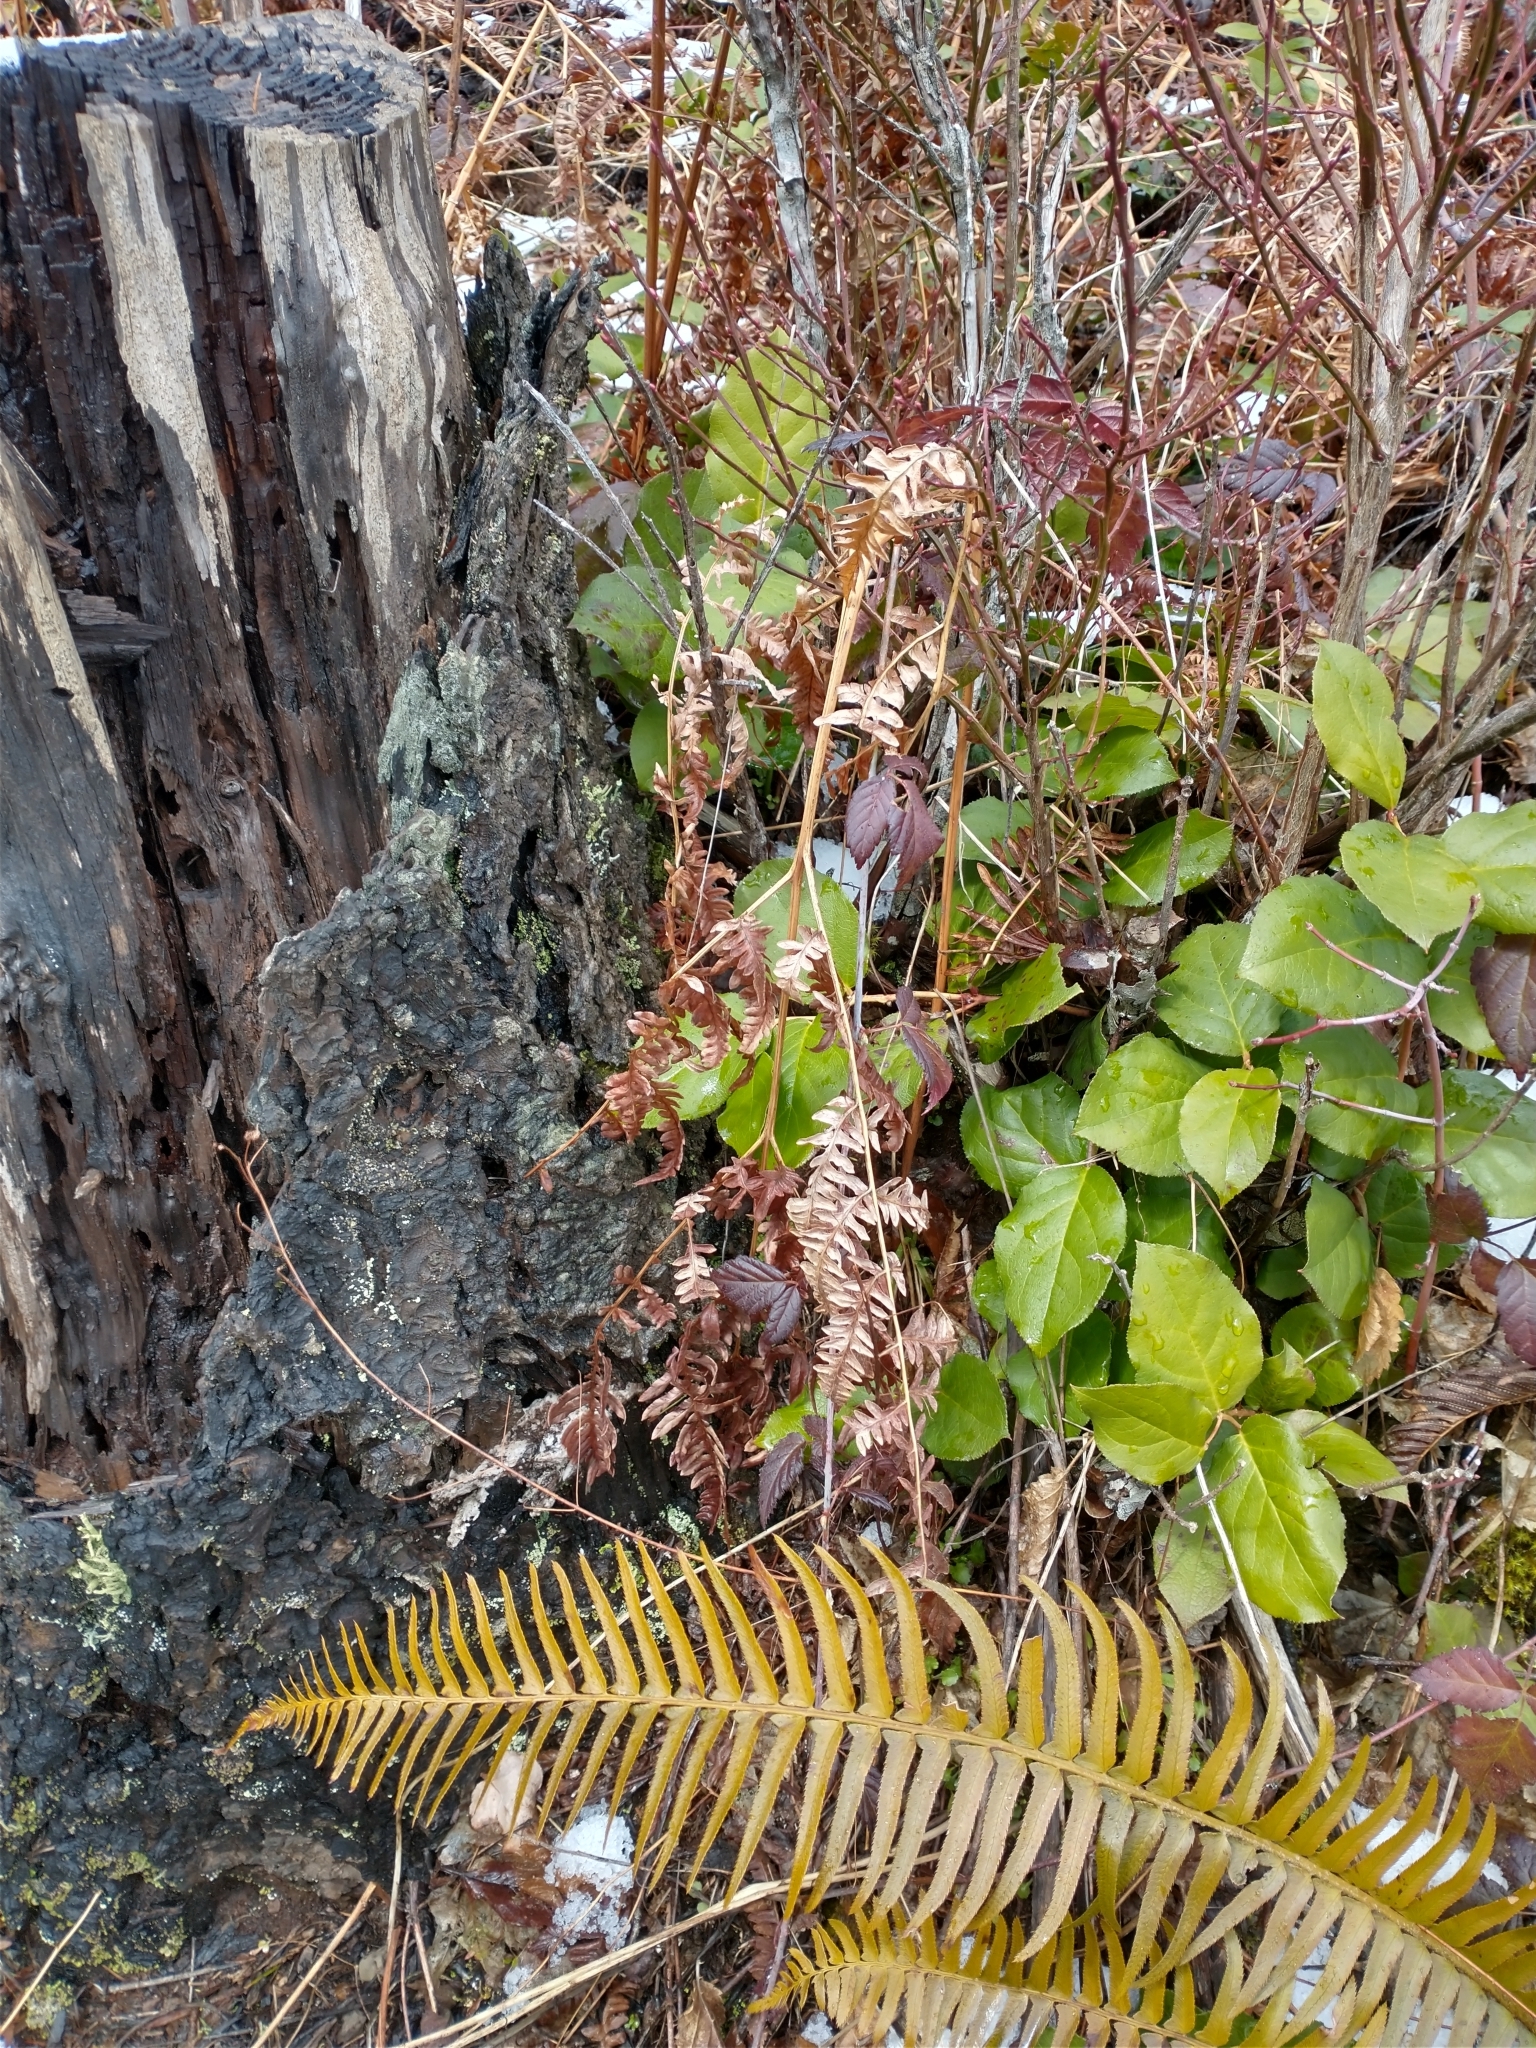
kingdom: Plantae
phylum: Tracheophyta
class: Polypodiopsida
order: Polypodiales
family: Dennstaedtiaceae
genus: Pteridium
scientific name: Pteridium aquilinum
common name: Bracken
